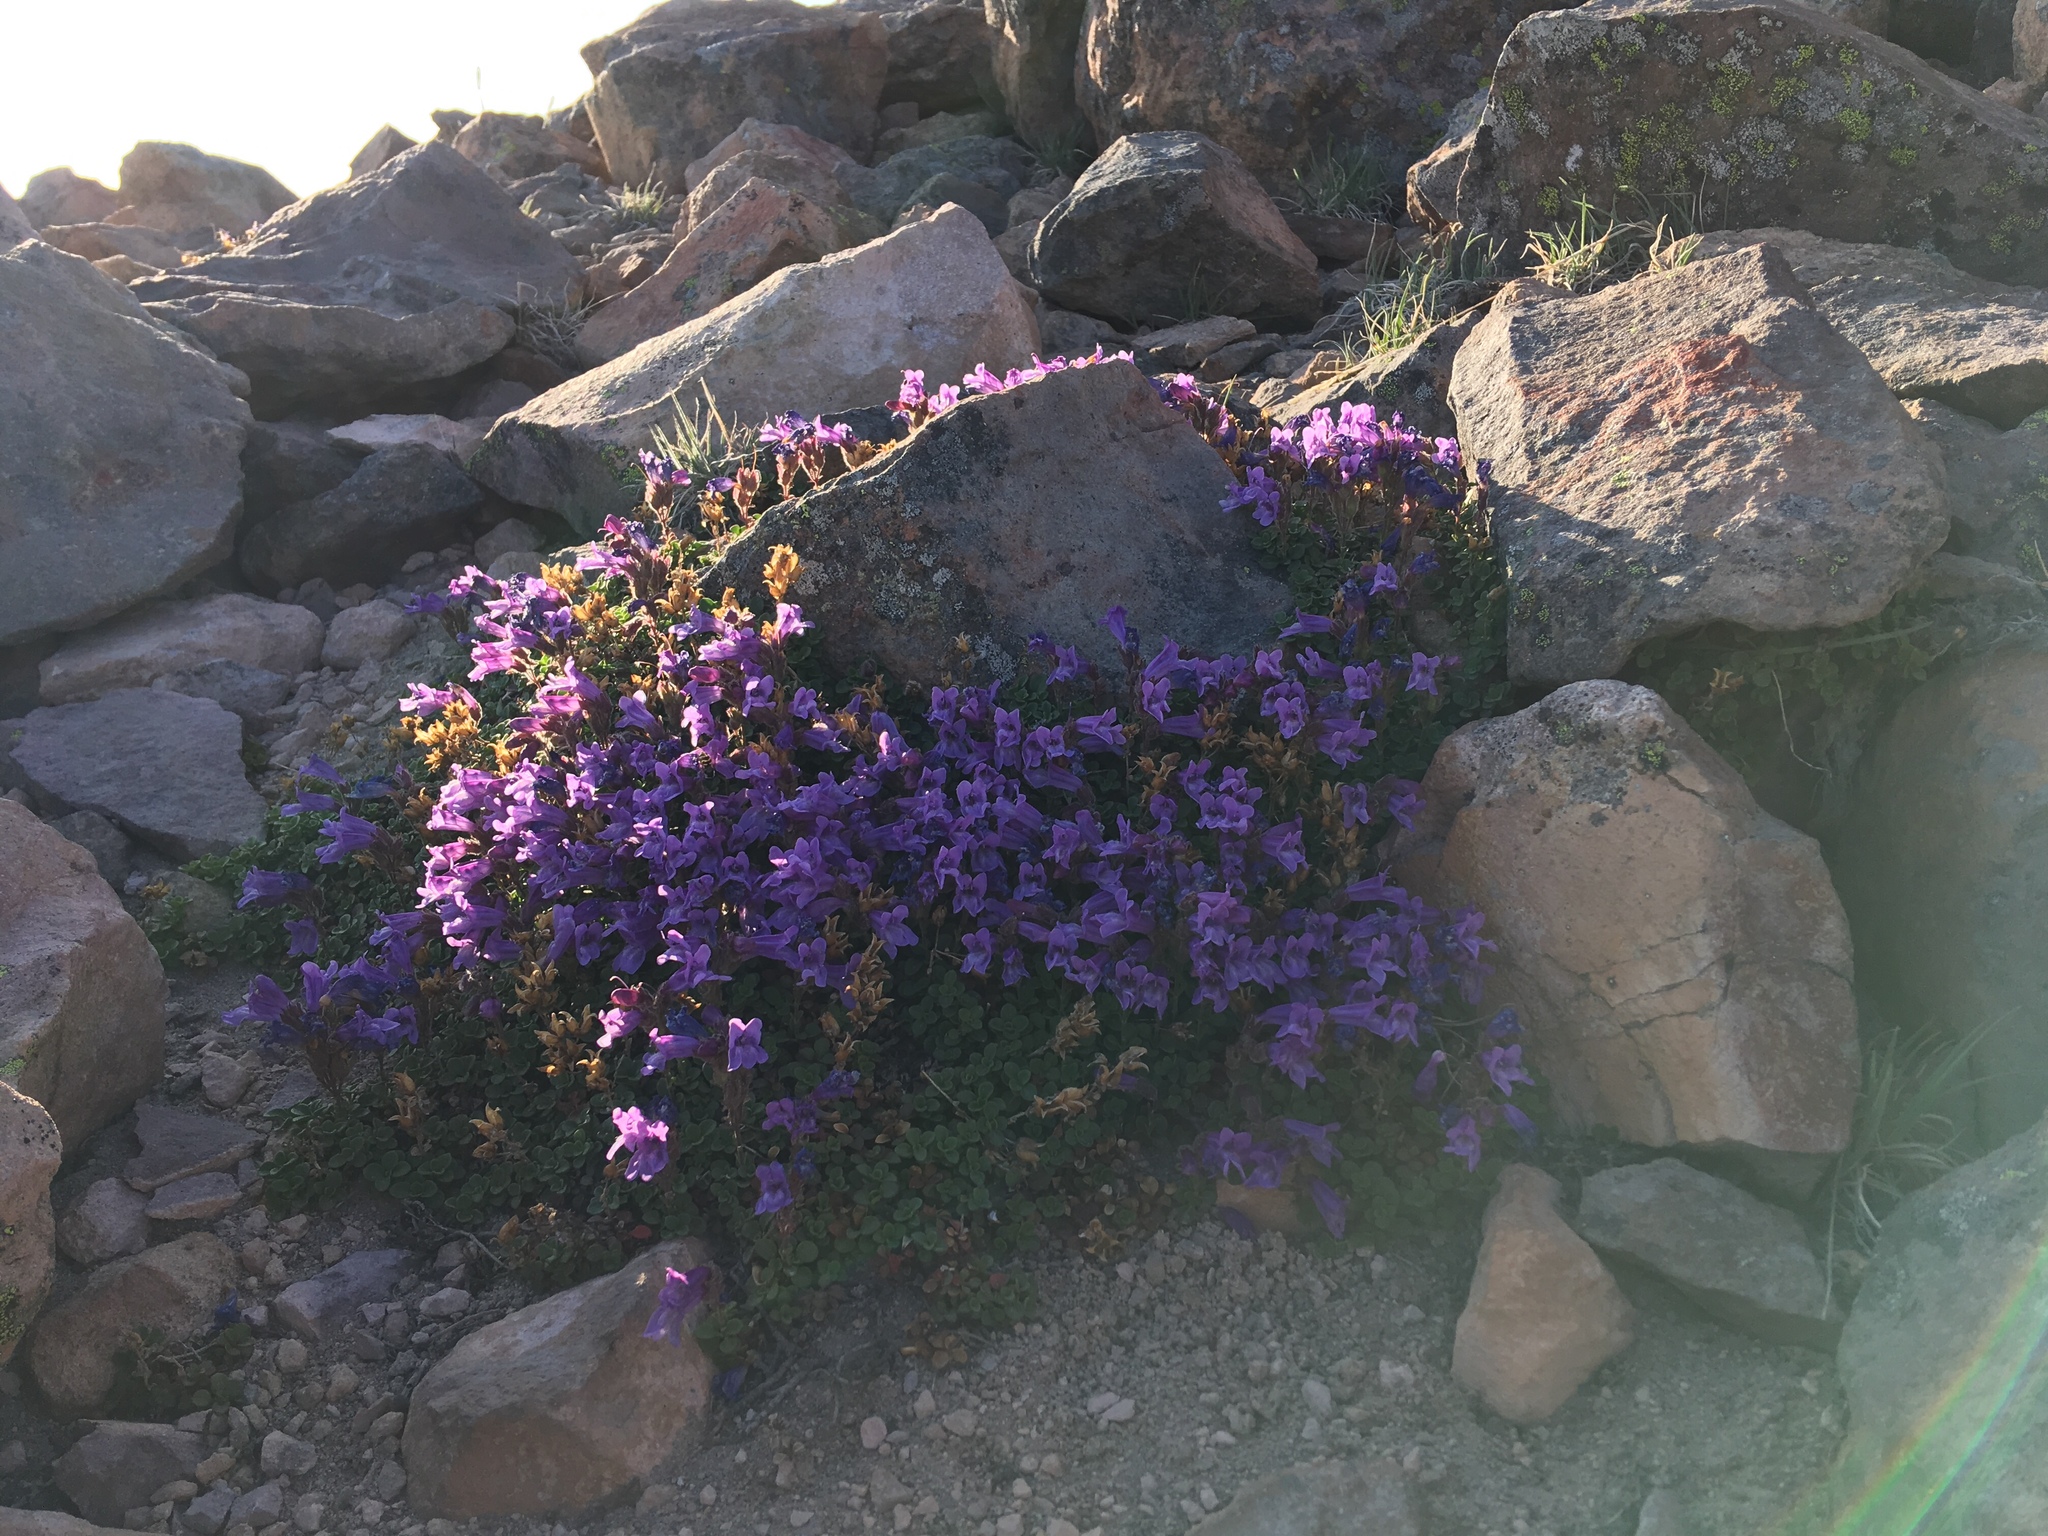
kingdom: Plantae
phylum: Tracheophyta
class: Magnoliopsida
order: Lamiales
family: Plantaginaceae
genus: Penstemon
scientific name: Penstemon davidsonii
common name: Davidson's penstemon
